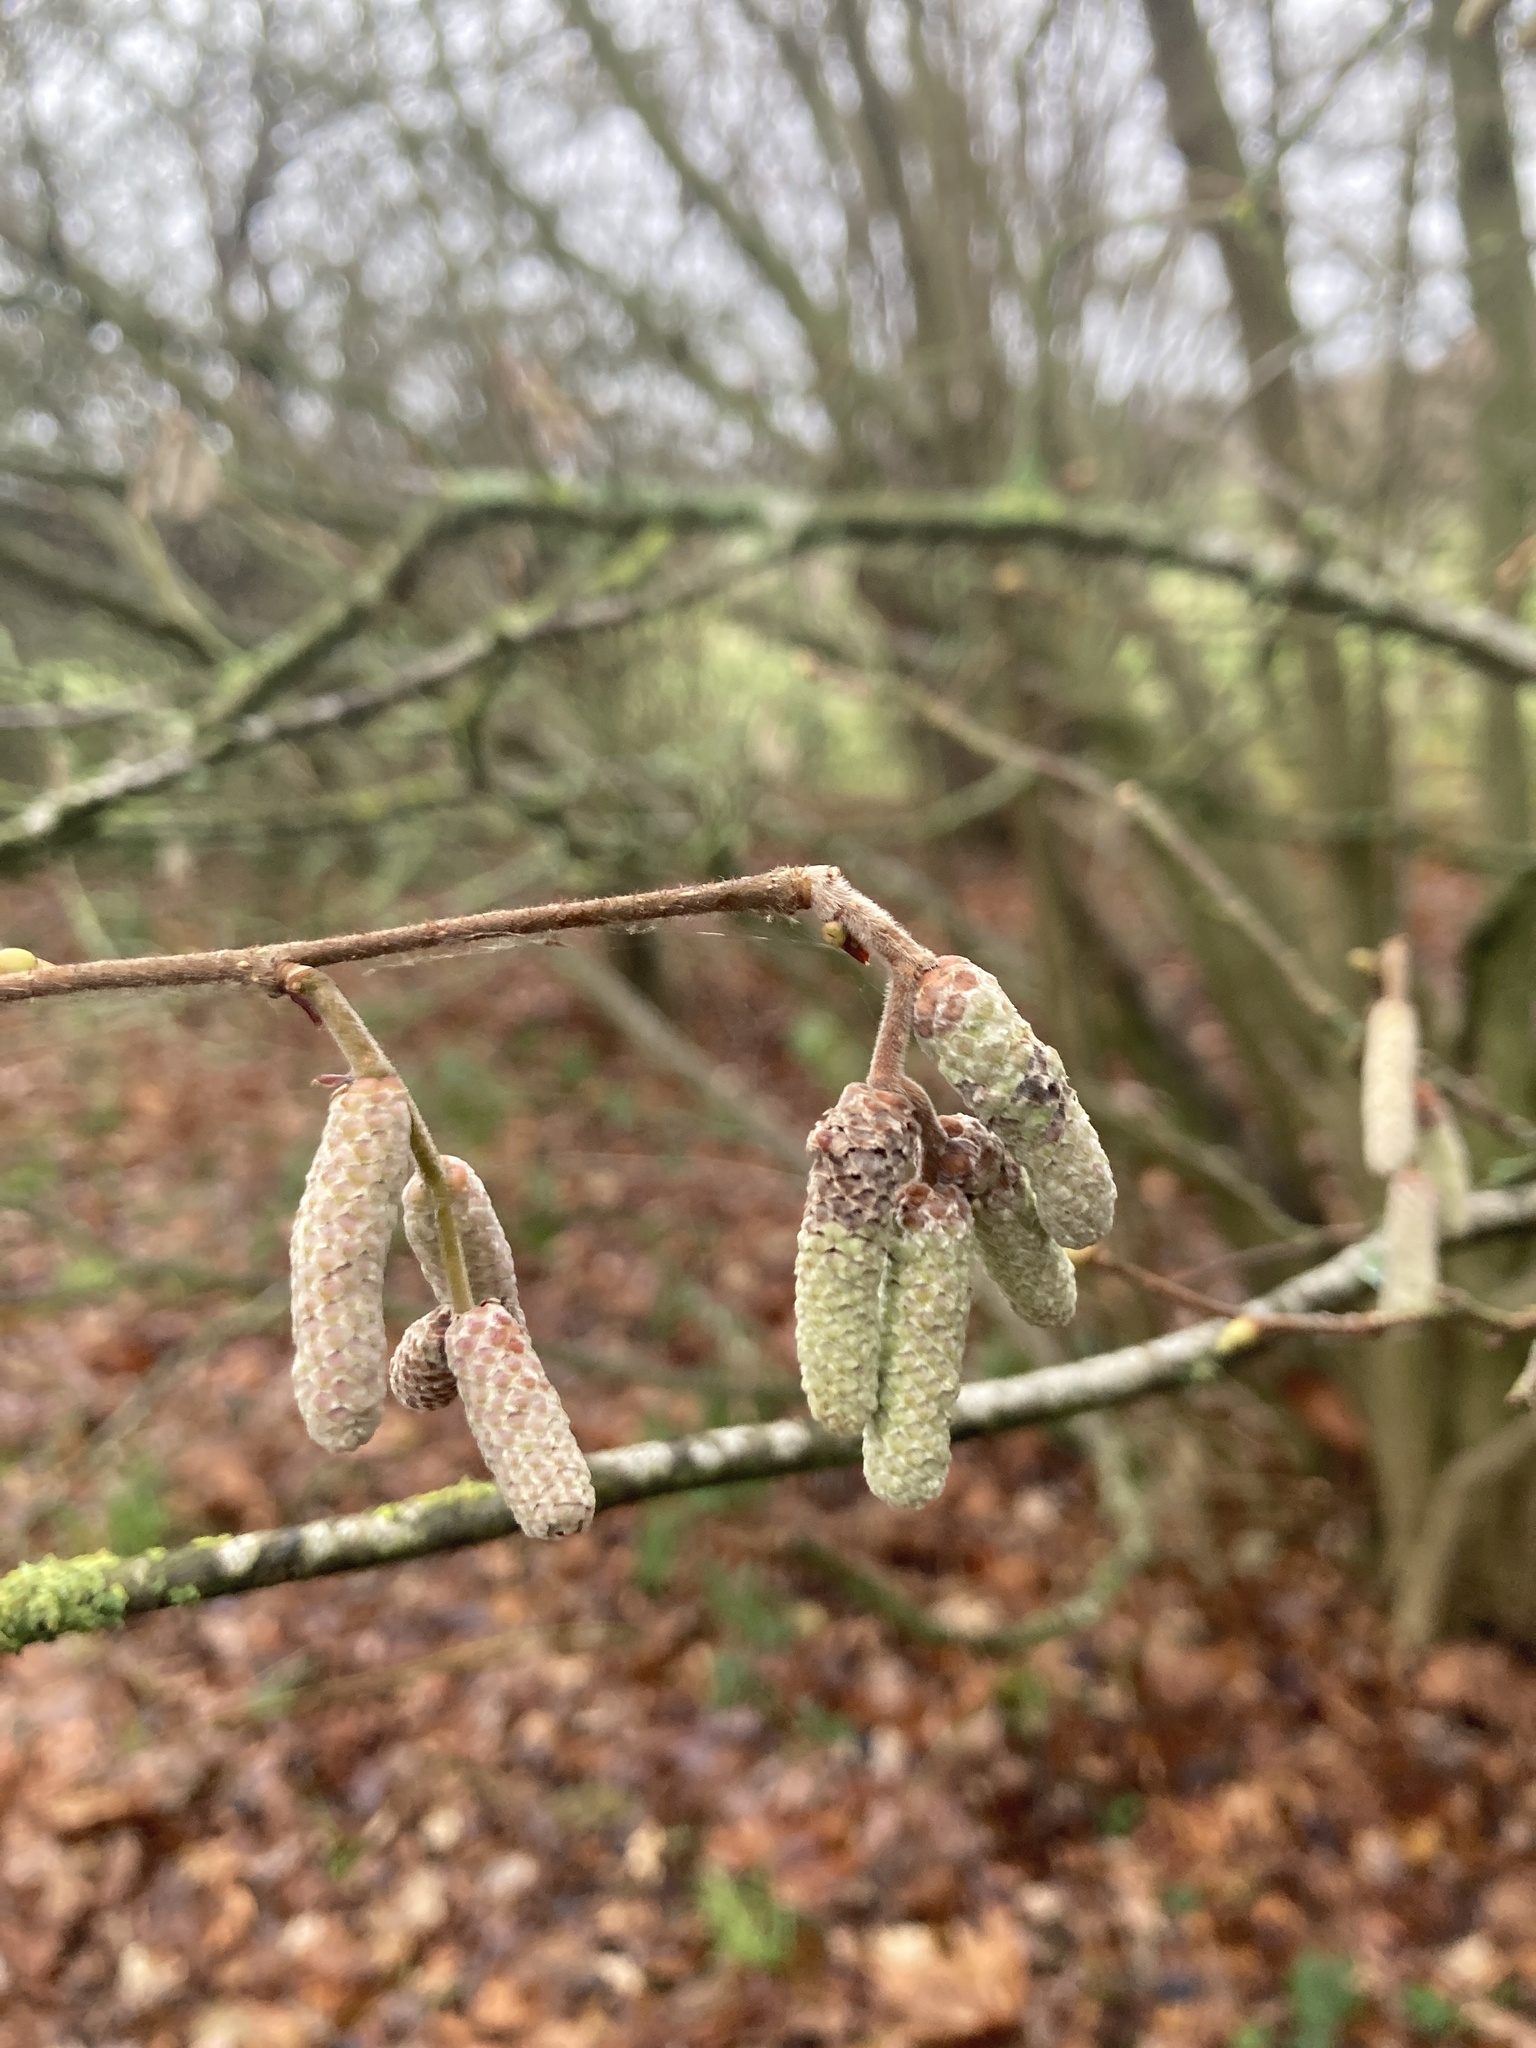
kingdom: Plantae
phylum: Tracheophyta
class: Magnoliopsida
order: Fagales
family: Betulaceae
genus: Corylus
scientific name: Corylus avellana
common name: European hazel
